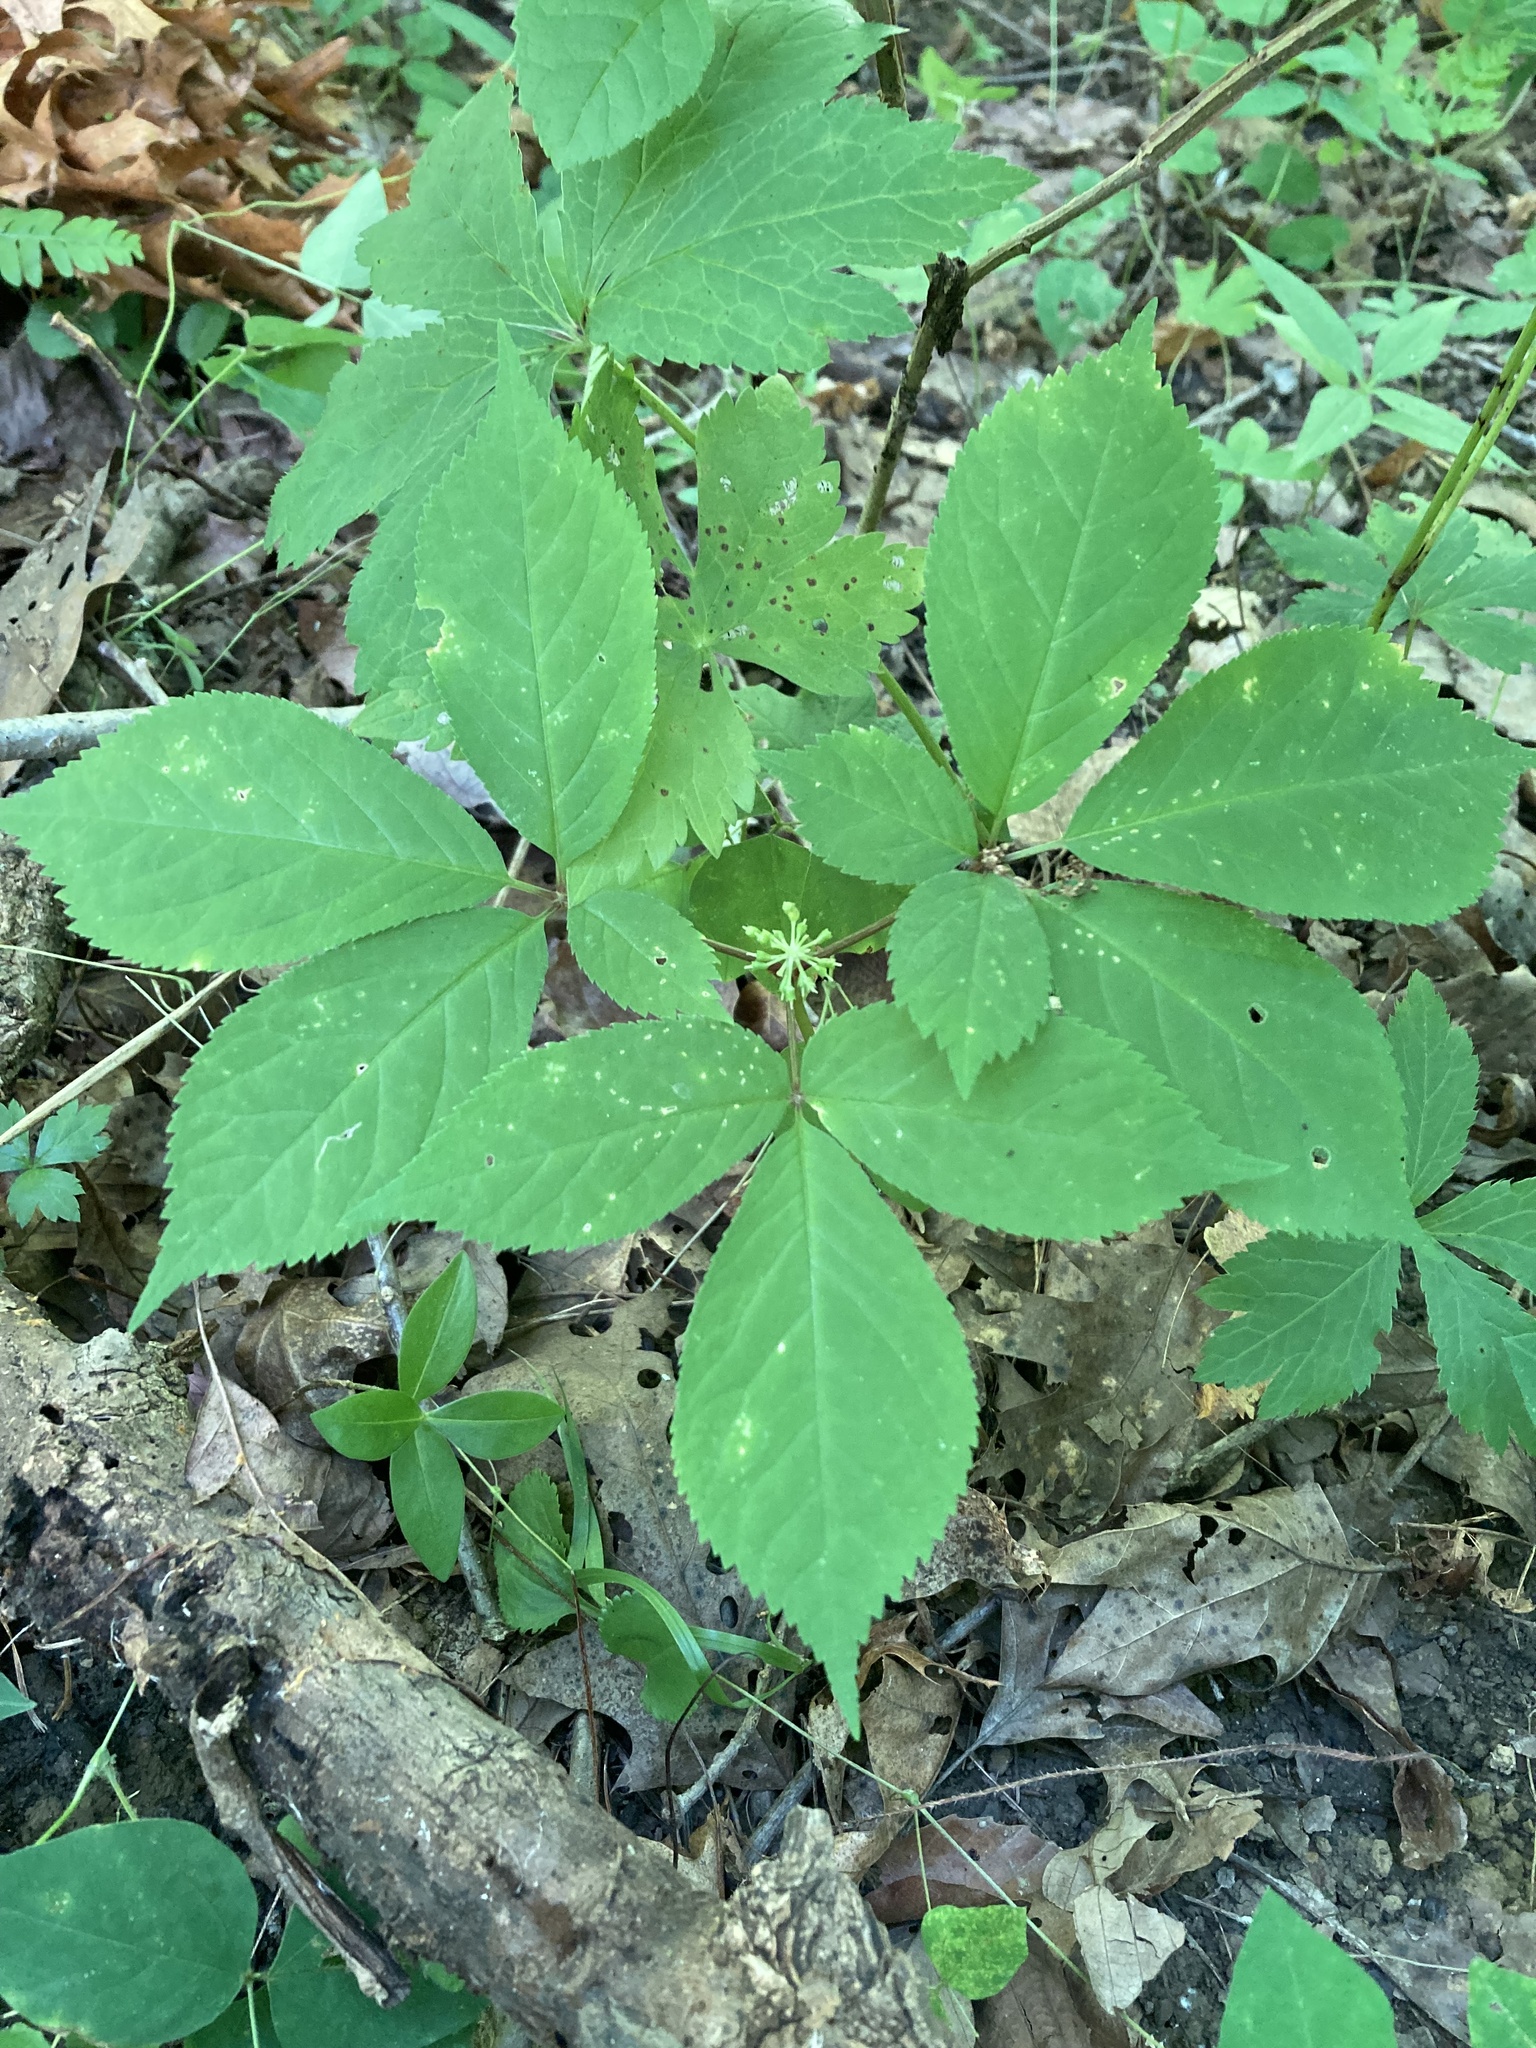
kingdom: Plantae
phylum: Tracheophyta
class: Magnoliopsida
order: Apiales
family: Araliaceae
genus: Panax
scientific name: Panax quinquefolius
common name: American ginseng
